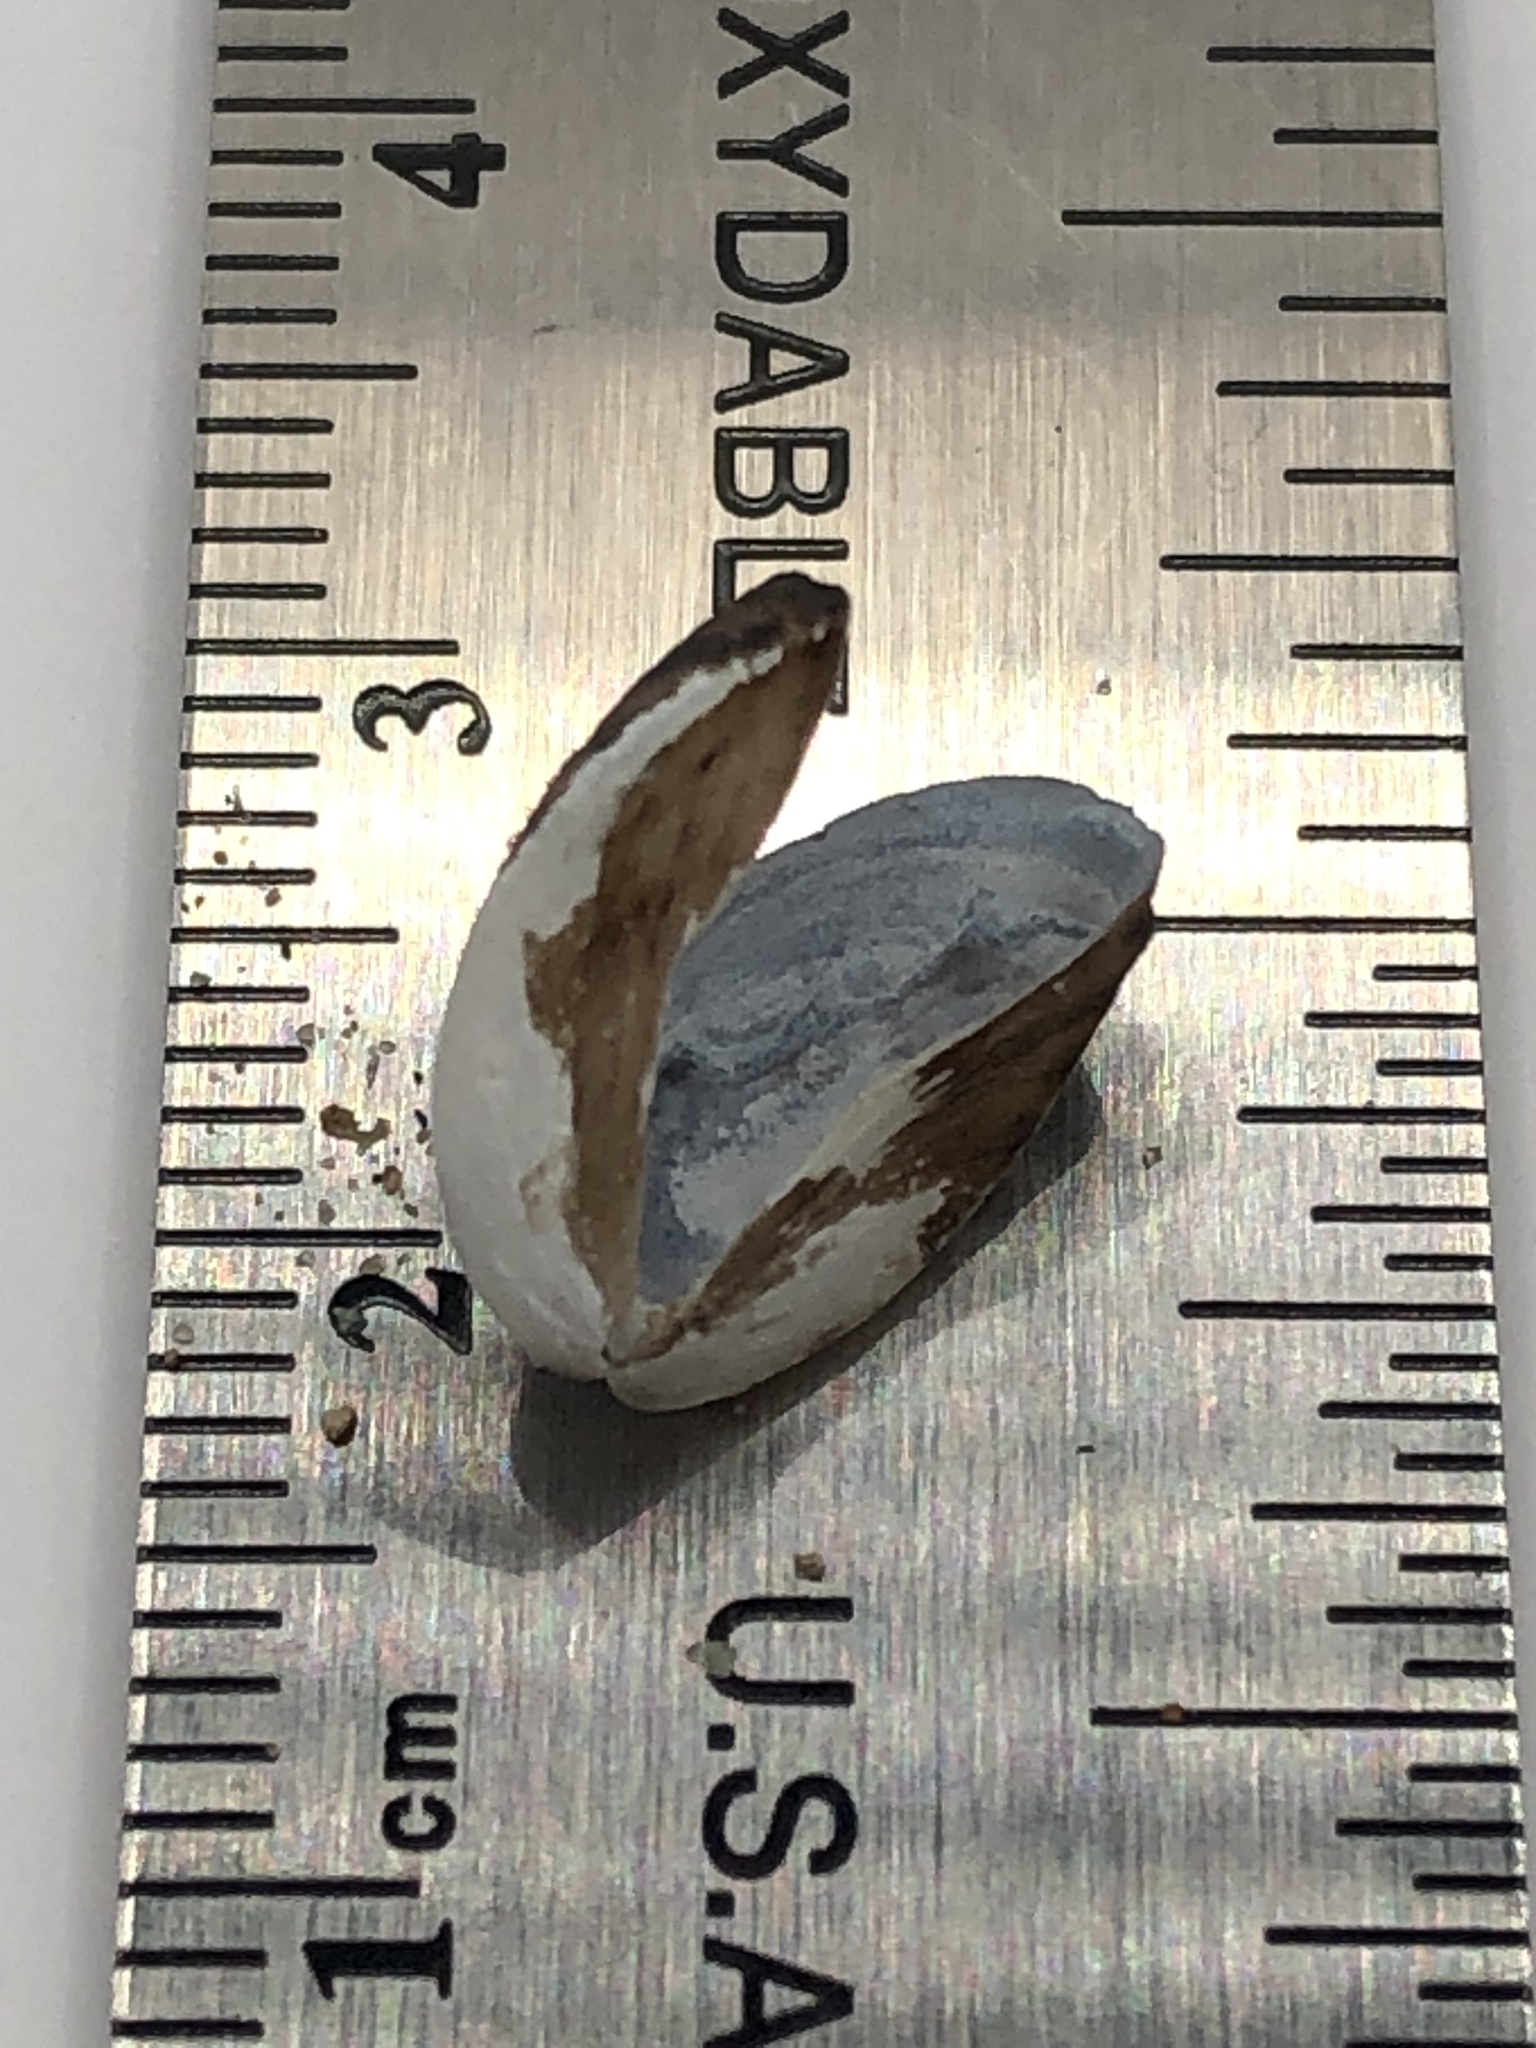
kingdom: Animalia
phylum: Mollusca
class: Bivalvia
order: Myida
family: Dreissenidae
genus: Dreissena
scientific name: Dreissena polymorpha
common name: Zebra mussel
